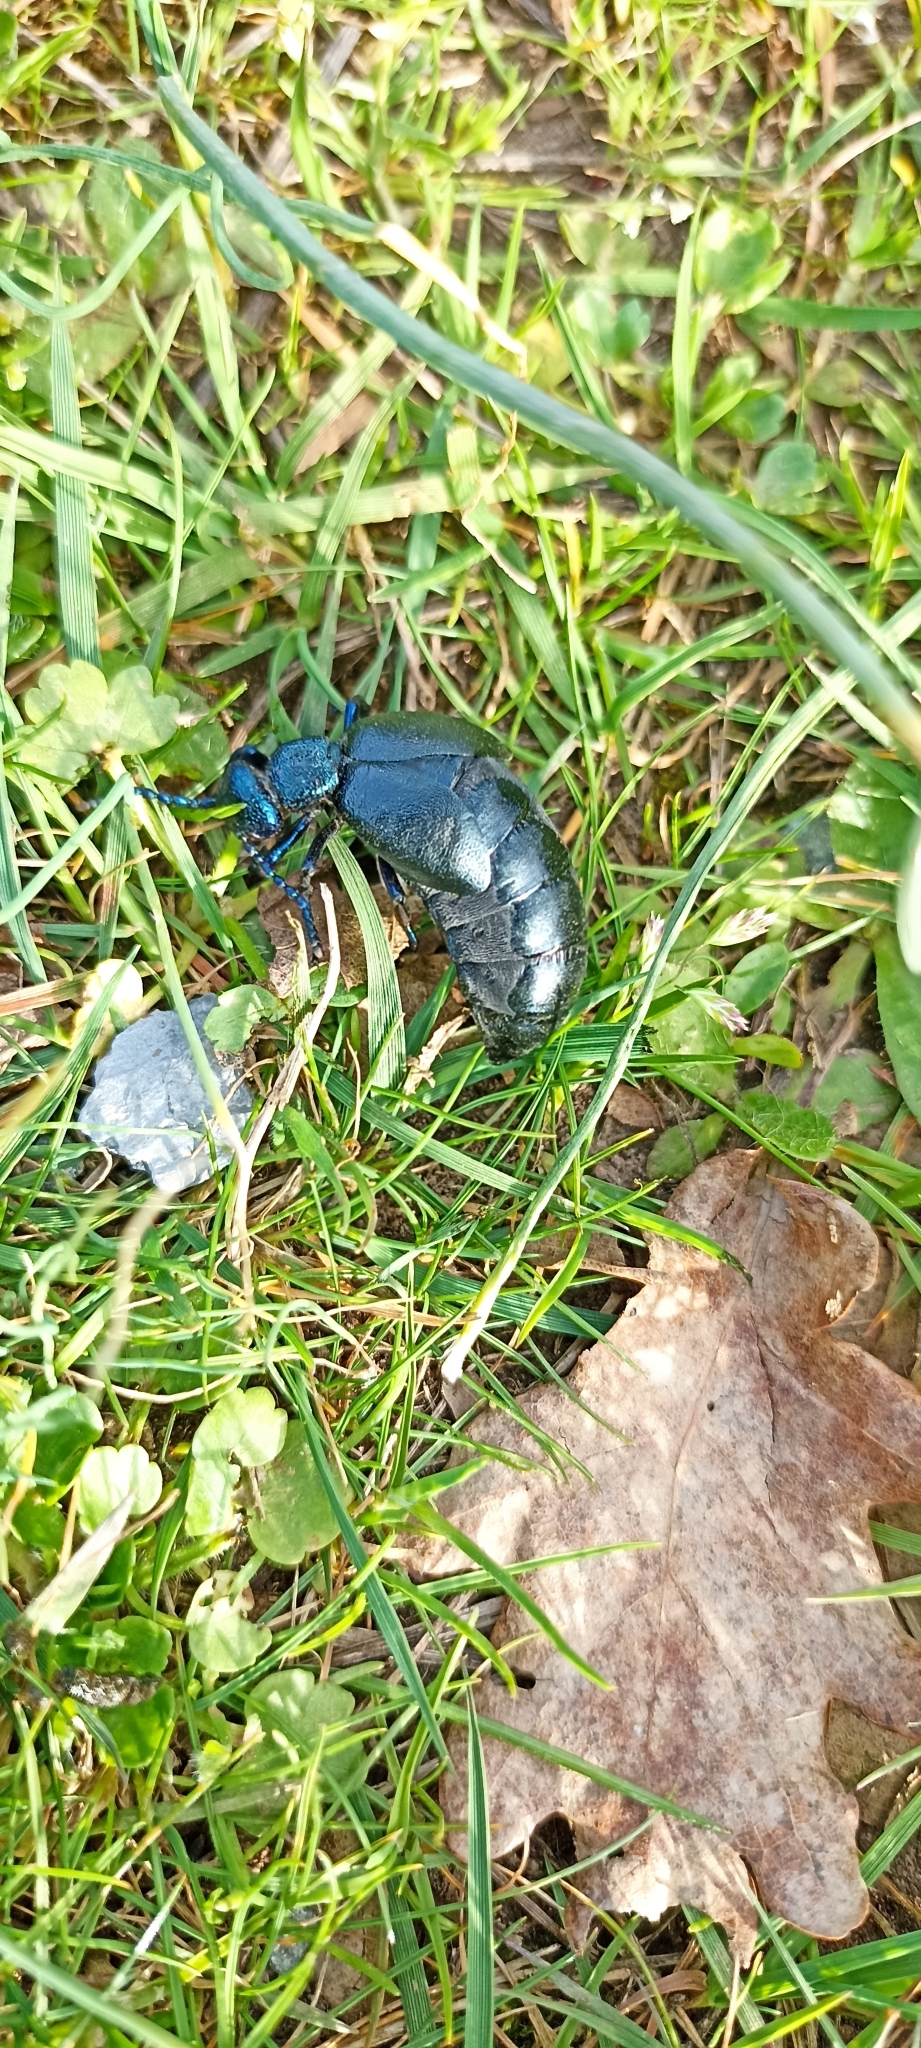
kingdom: Animalia
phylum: Arthropoda
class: Insecta
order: Coleoptera
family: Meloidae
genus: Meloe
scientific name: Meloe violaceus
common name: Violet oil-beetle
